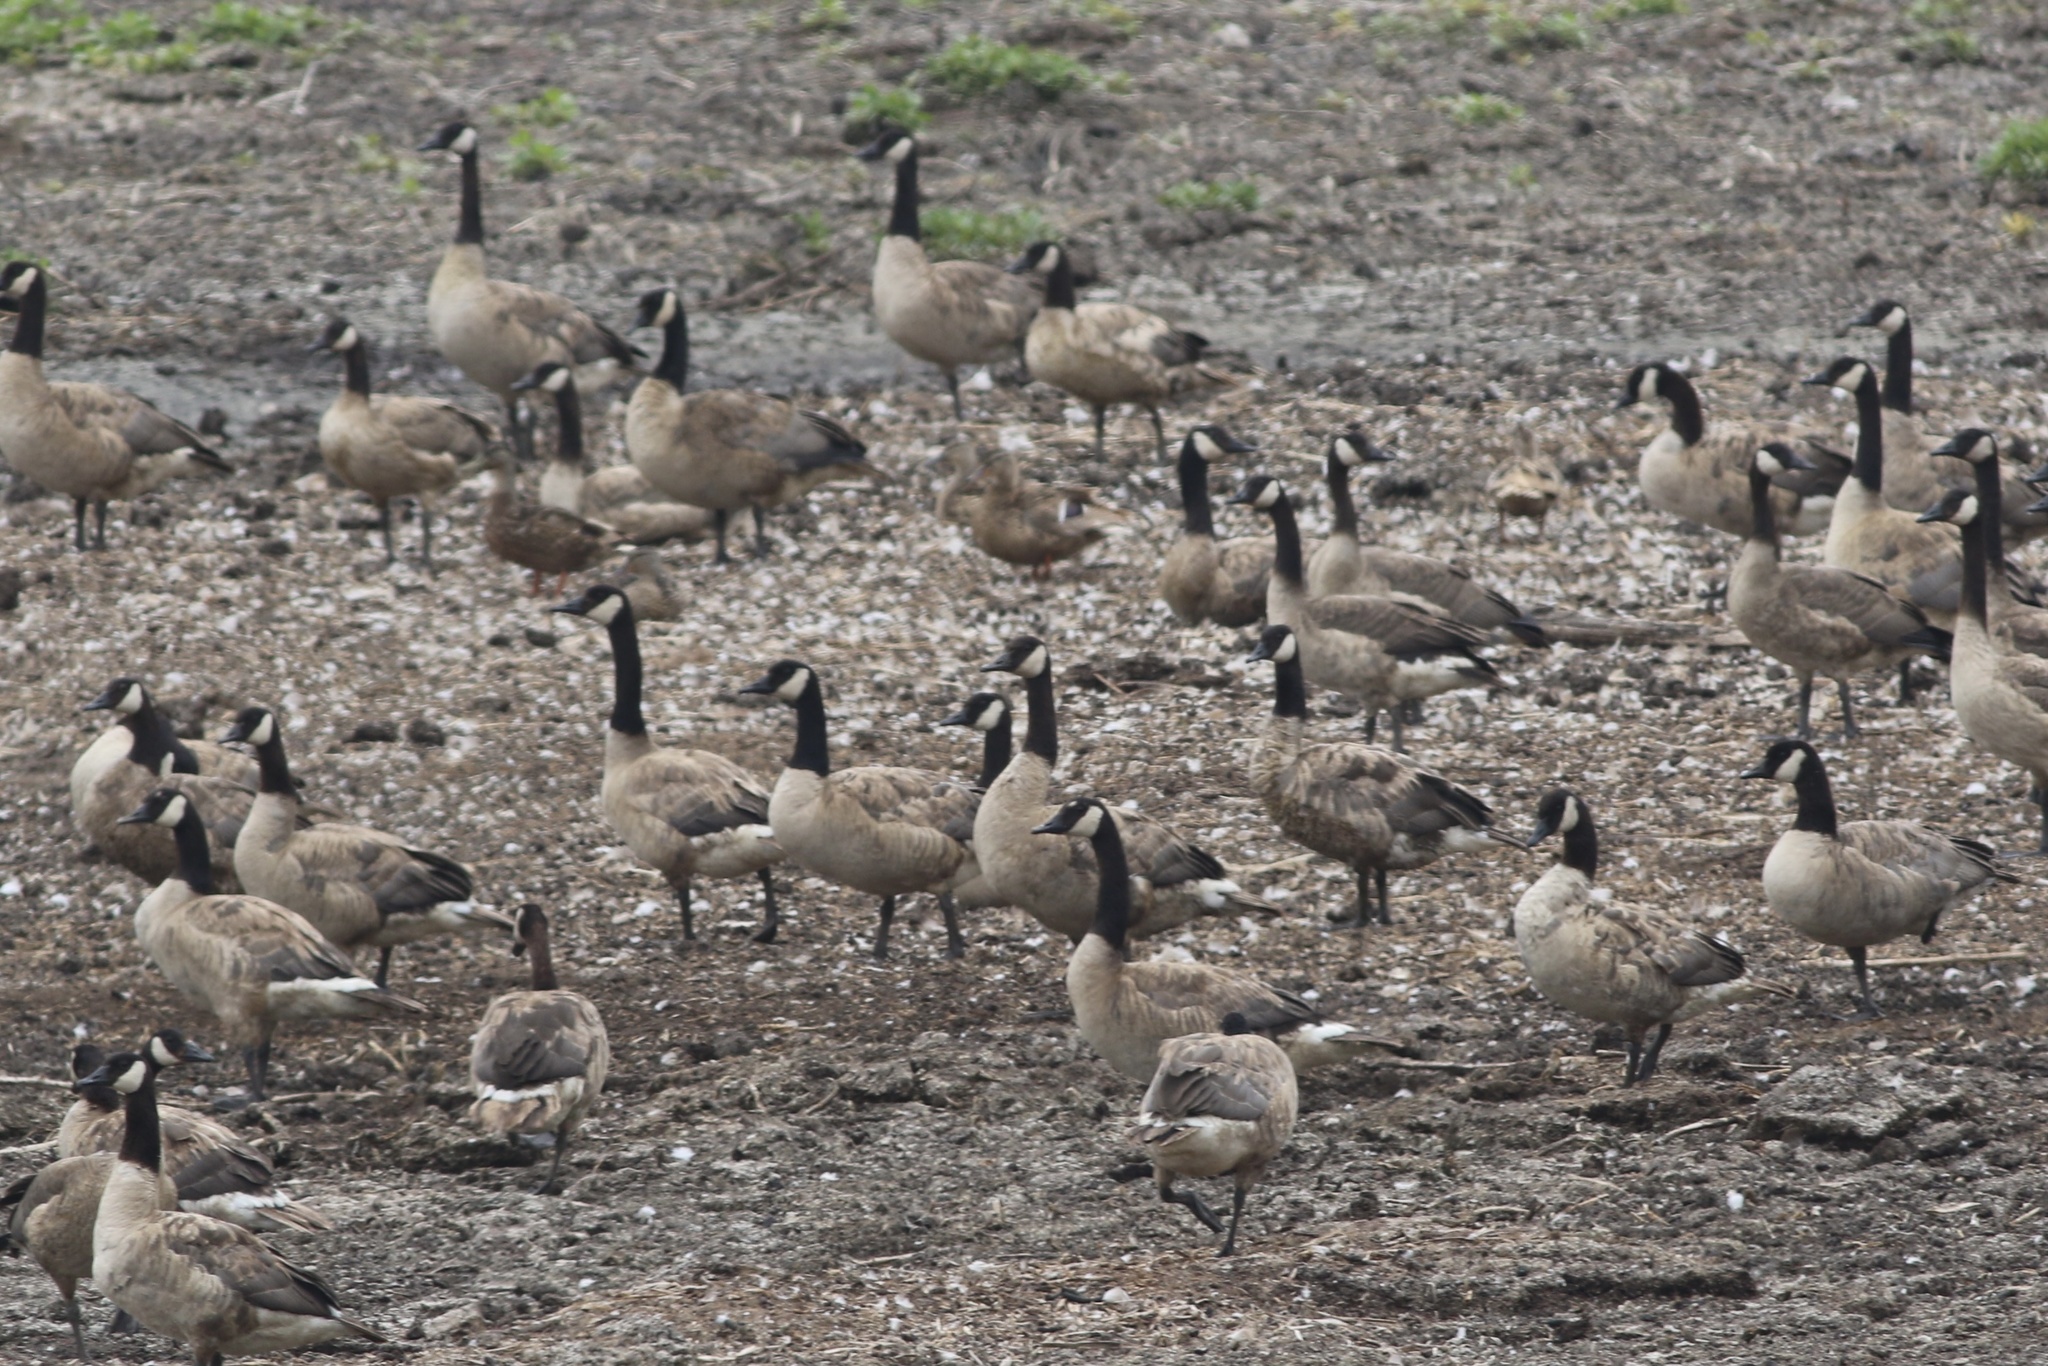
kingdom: Animalia
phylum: Chordata
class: Aves
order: Anseriformes
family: Anatidae
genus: Branta
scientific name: Branta canadensis
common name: Canada goose
